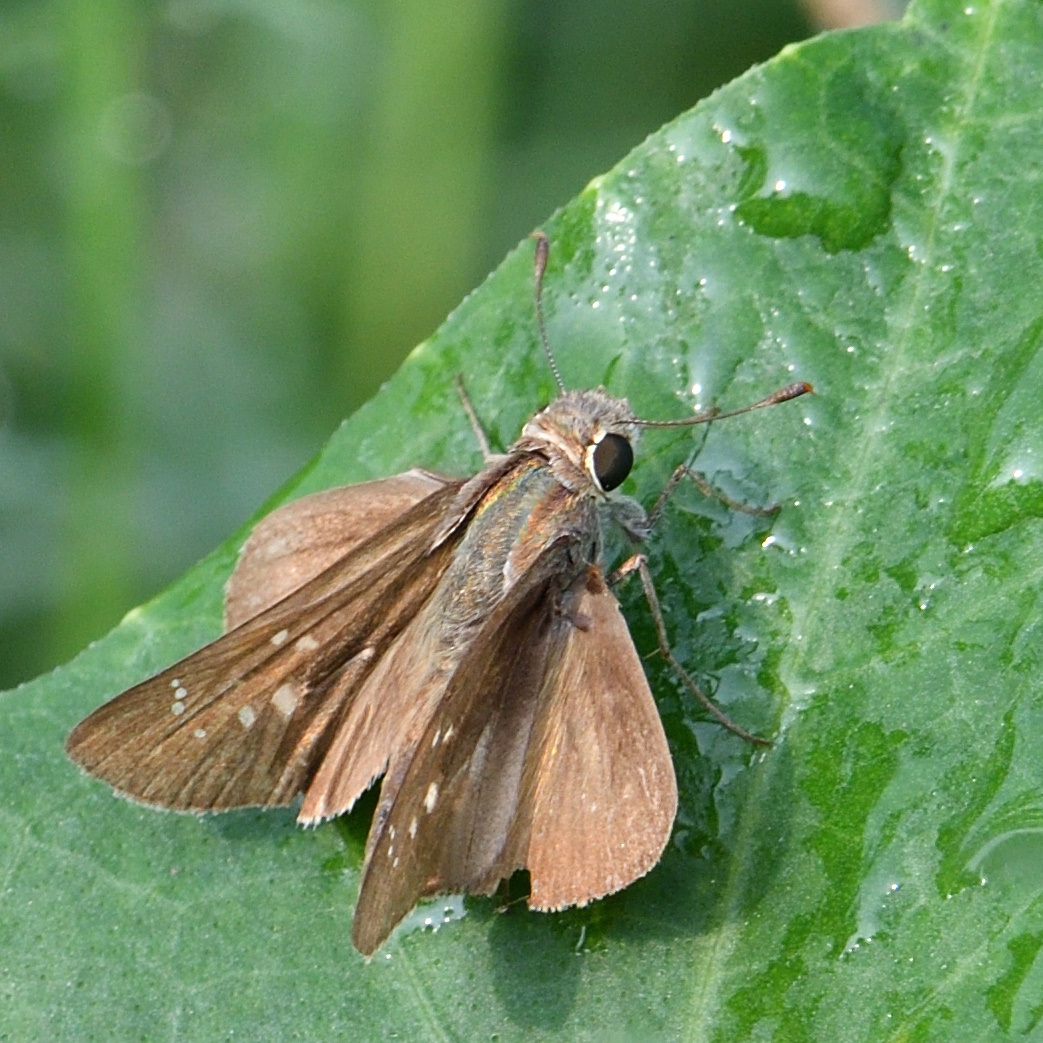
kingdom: Animalia
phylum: Arthropoda
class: Insecta
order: Lepidoptera
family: Hesperiidae
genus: Pelopidas
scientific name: Pelopidas mathias
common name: Black-branded swift
